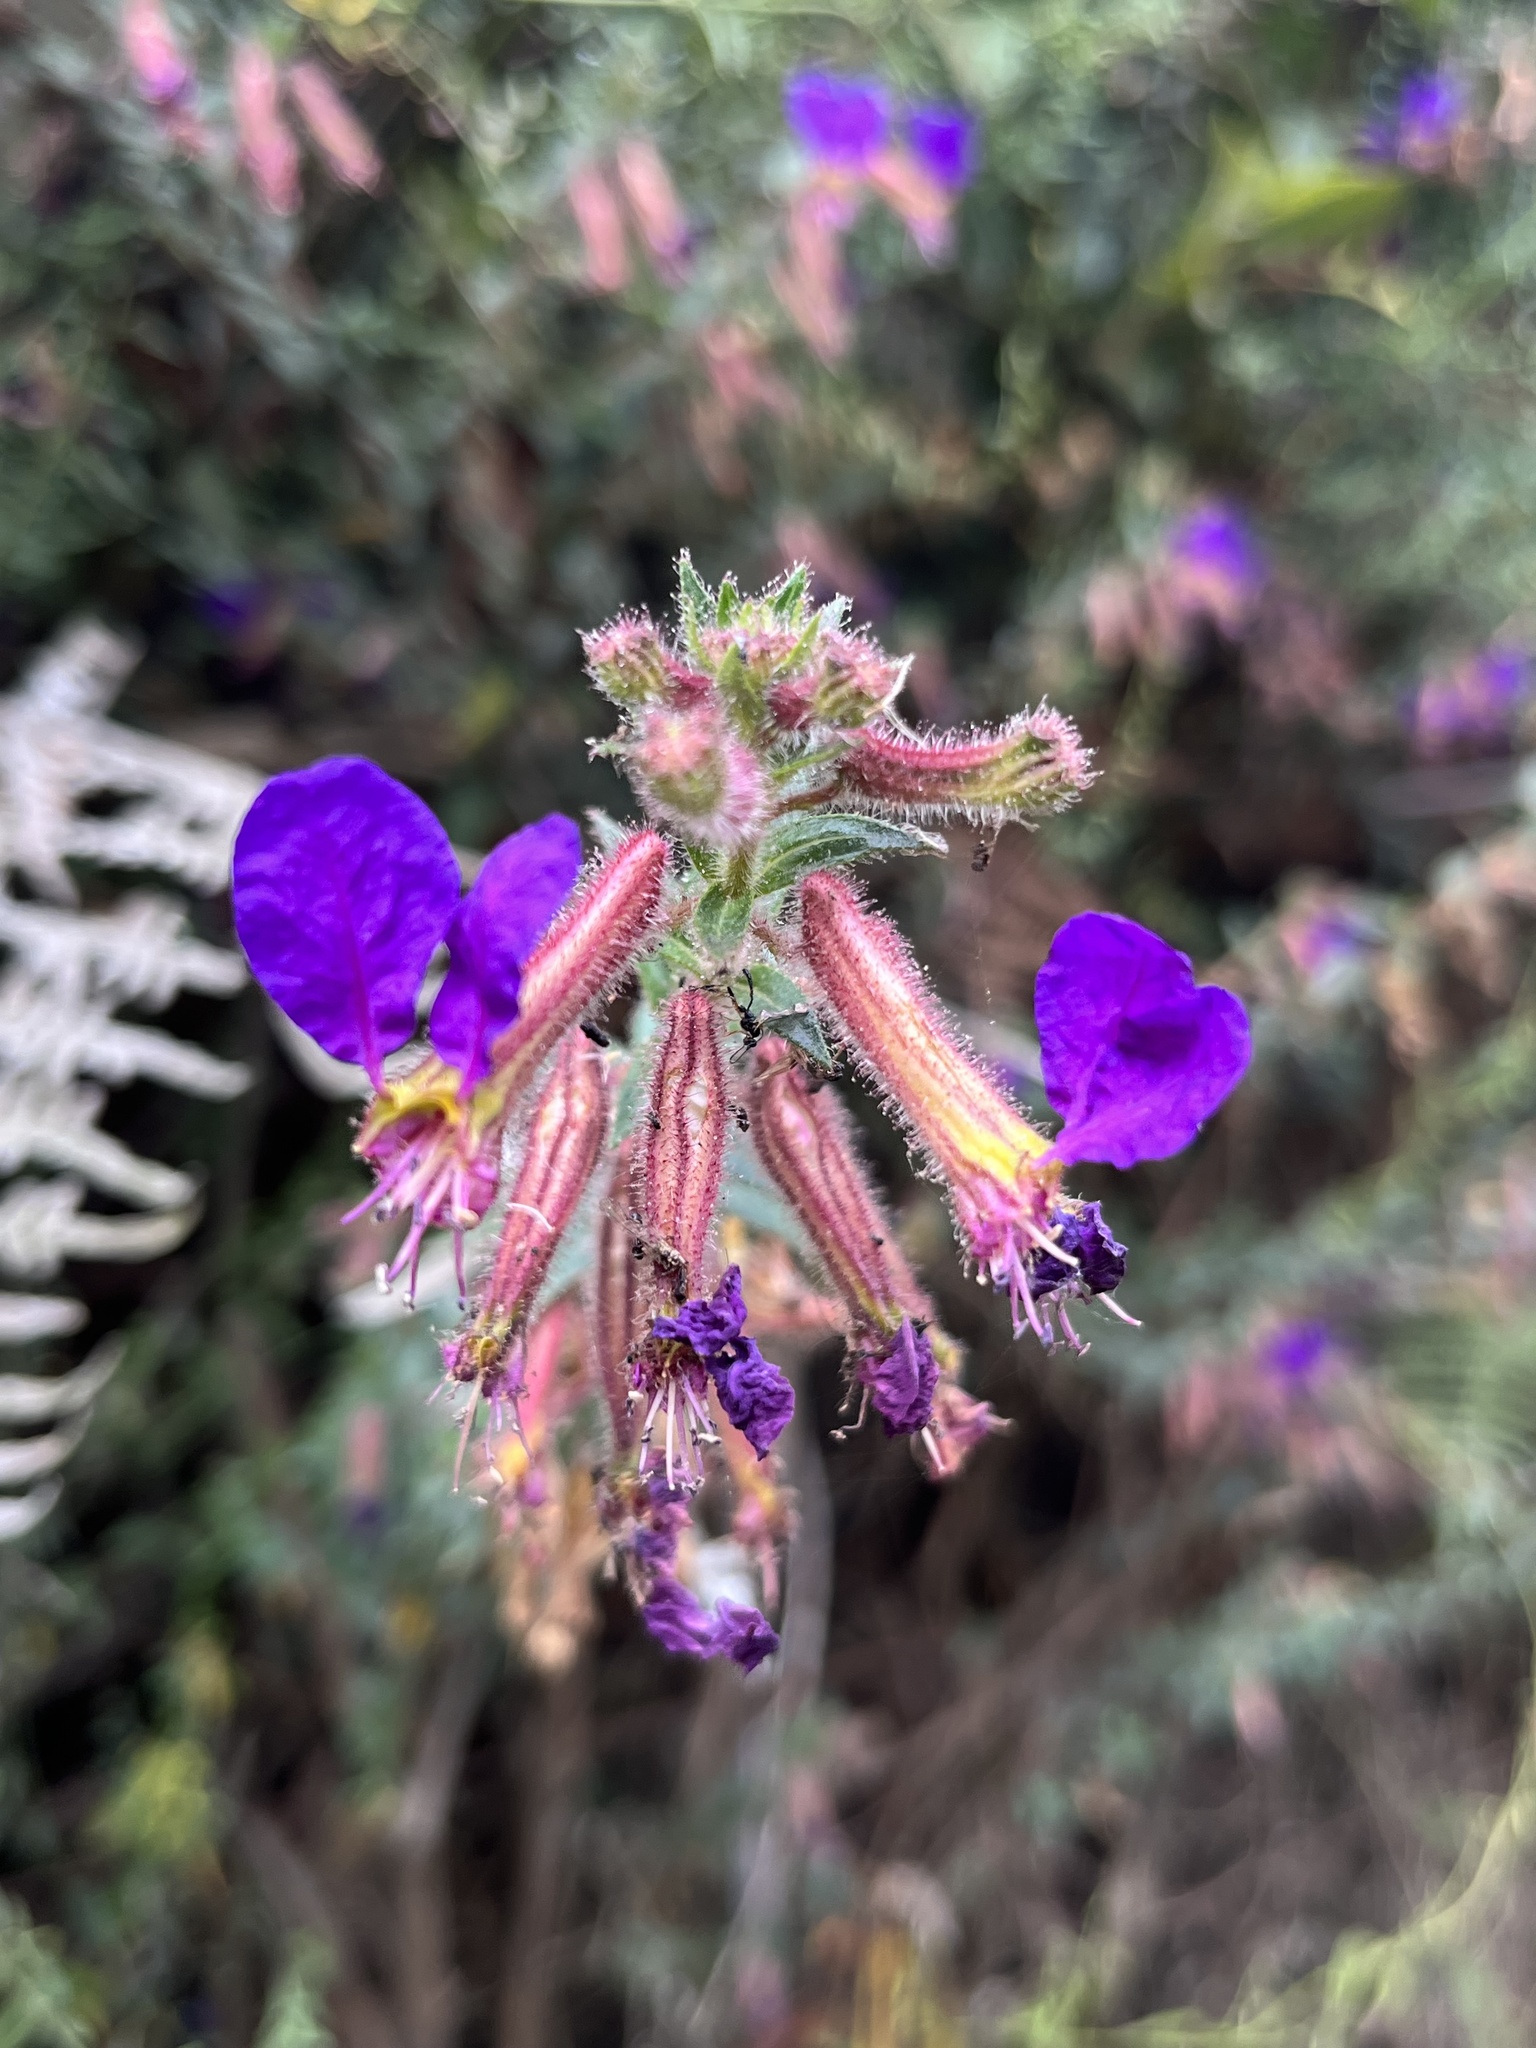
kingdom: Plantae
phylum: Tracheophyta
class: Magnoliopsida
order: Myrtales
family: Lythraceae
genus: Cuphea
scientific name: Cuphea dipetala
